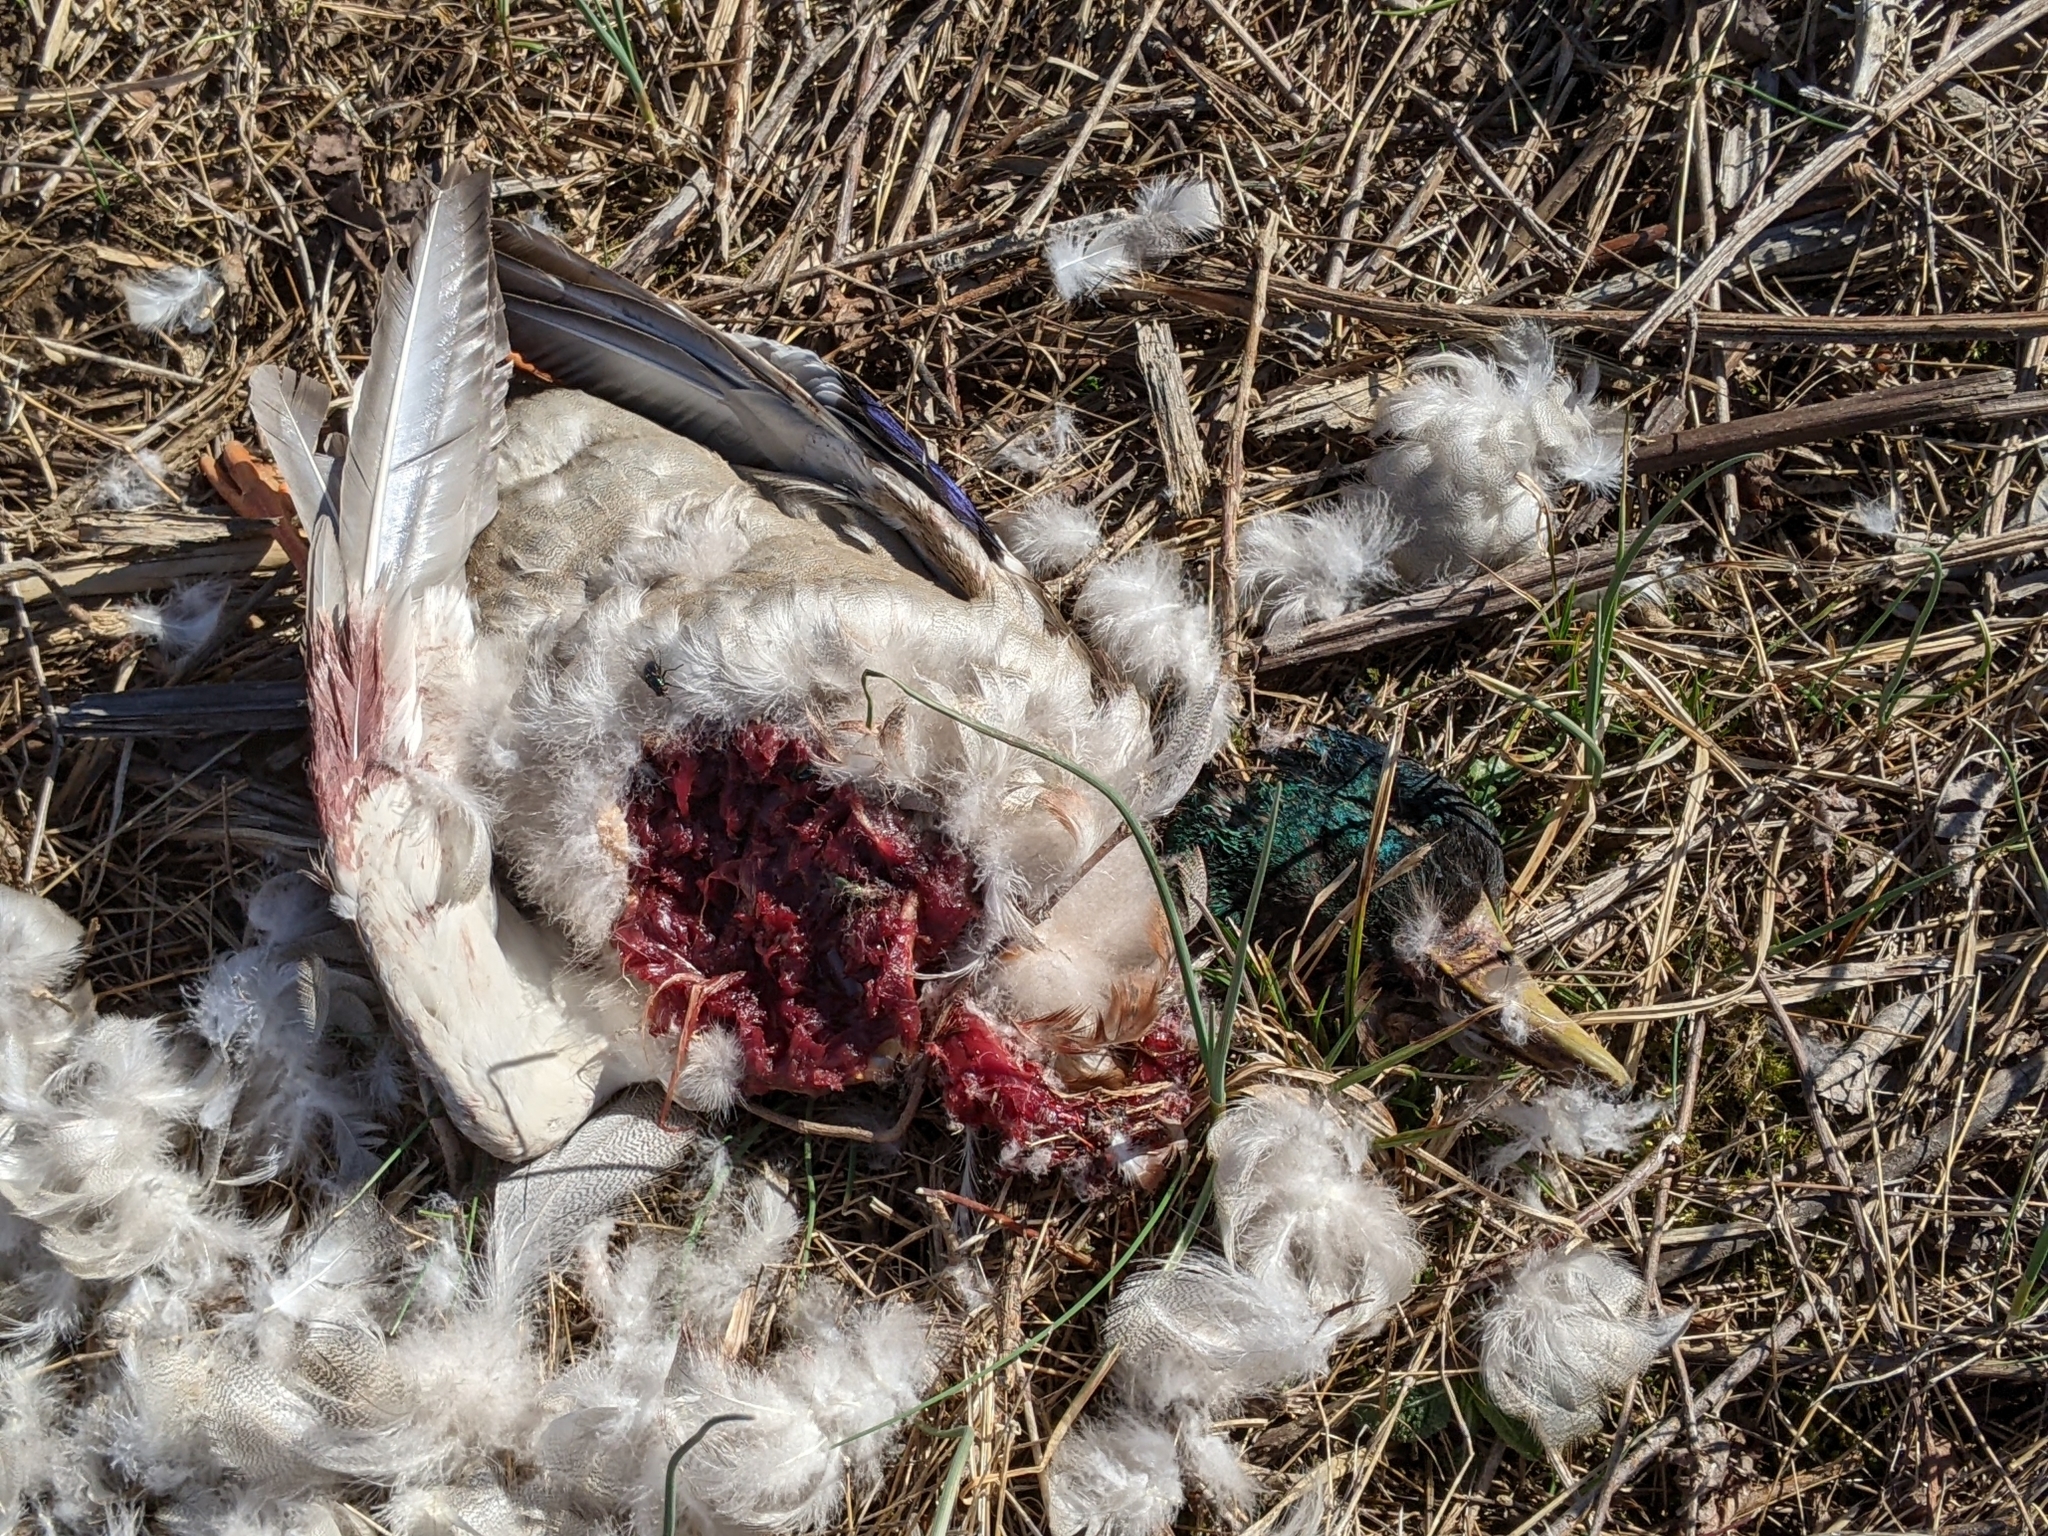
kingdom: Animalia
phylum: Chordata
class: Aves
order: Anseriformes
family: Anatidae
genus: Anas
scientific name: Anas platyrhynchos
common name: Mallard
